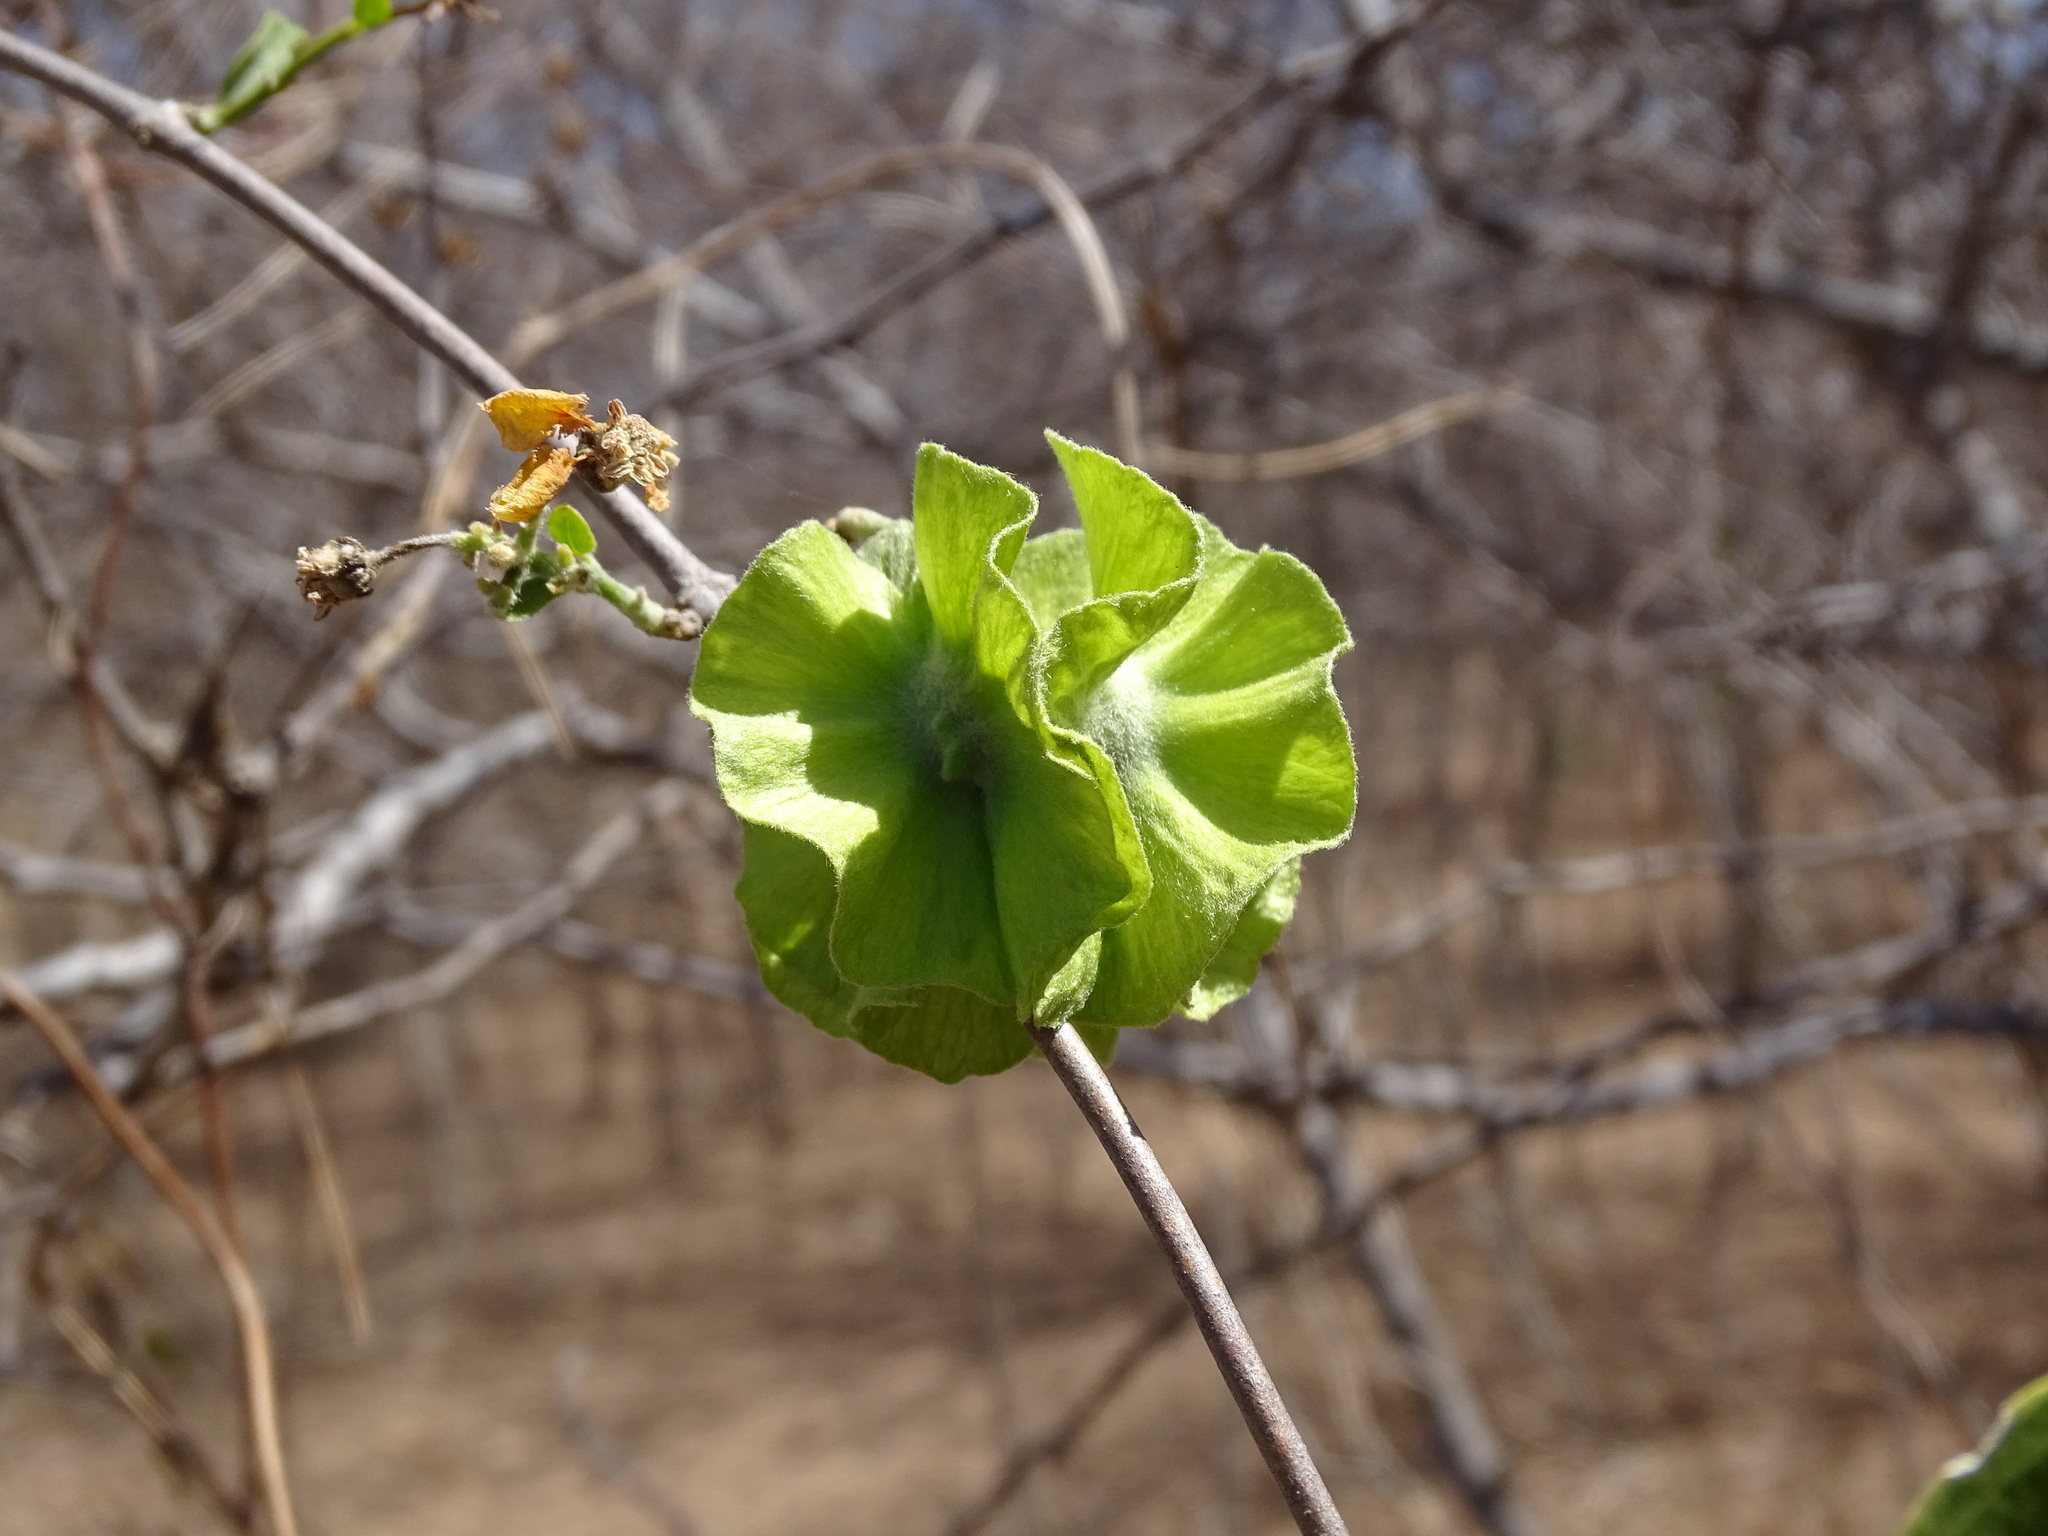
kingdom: Plantae
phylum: Tracheophyta
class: Magnoliopsida
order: Malpighiales
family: Malpighiaceae
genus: Callaeum
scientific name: Callaeum macropterum
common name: Mexican butterfly-vine
